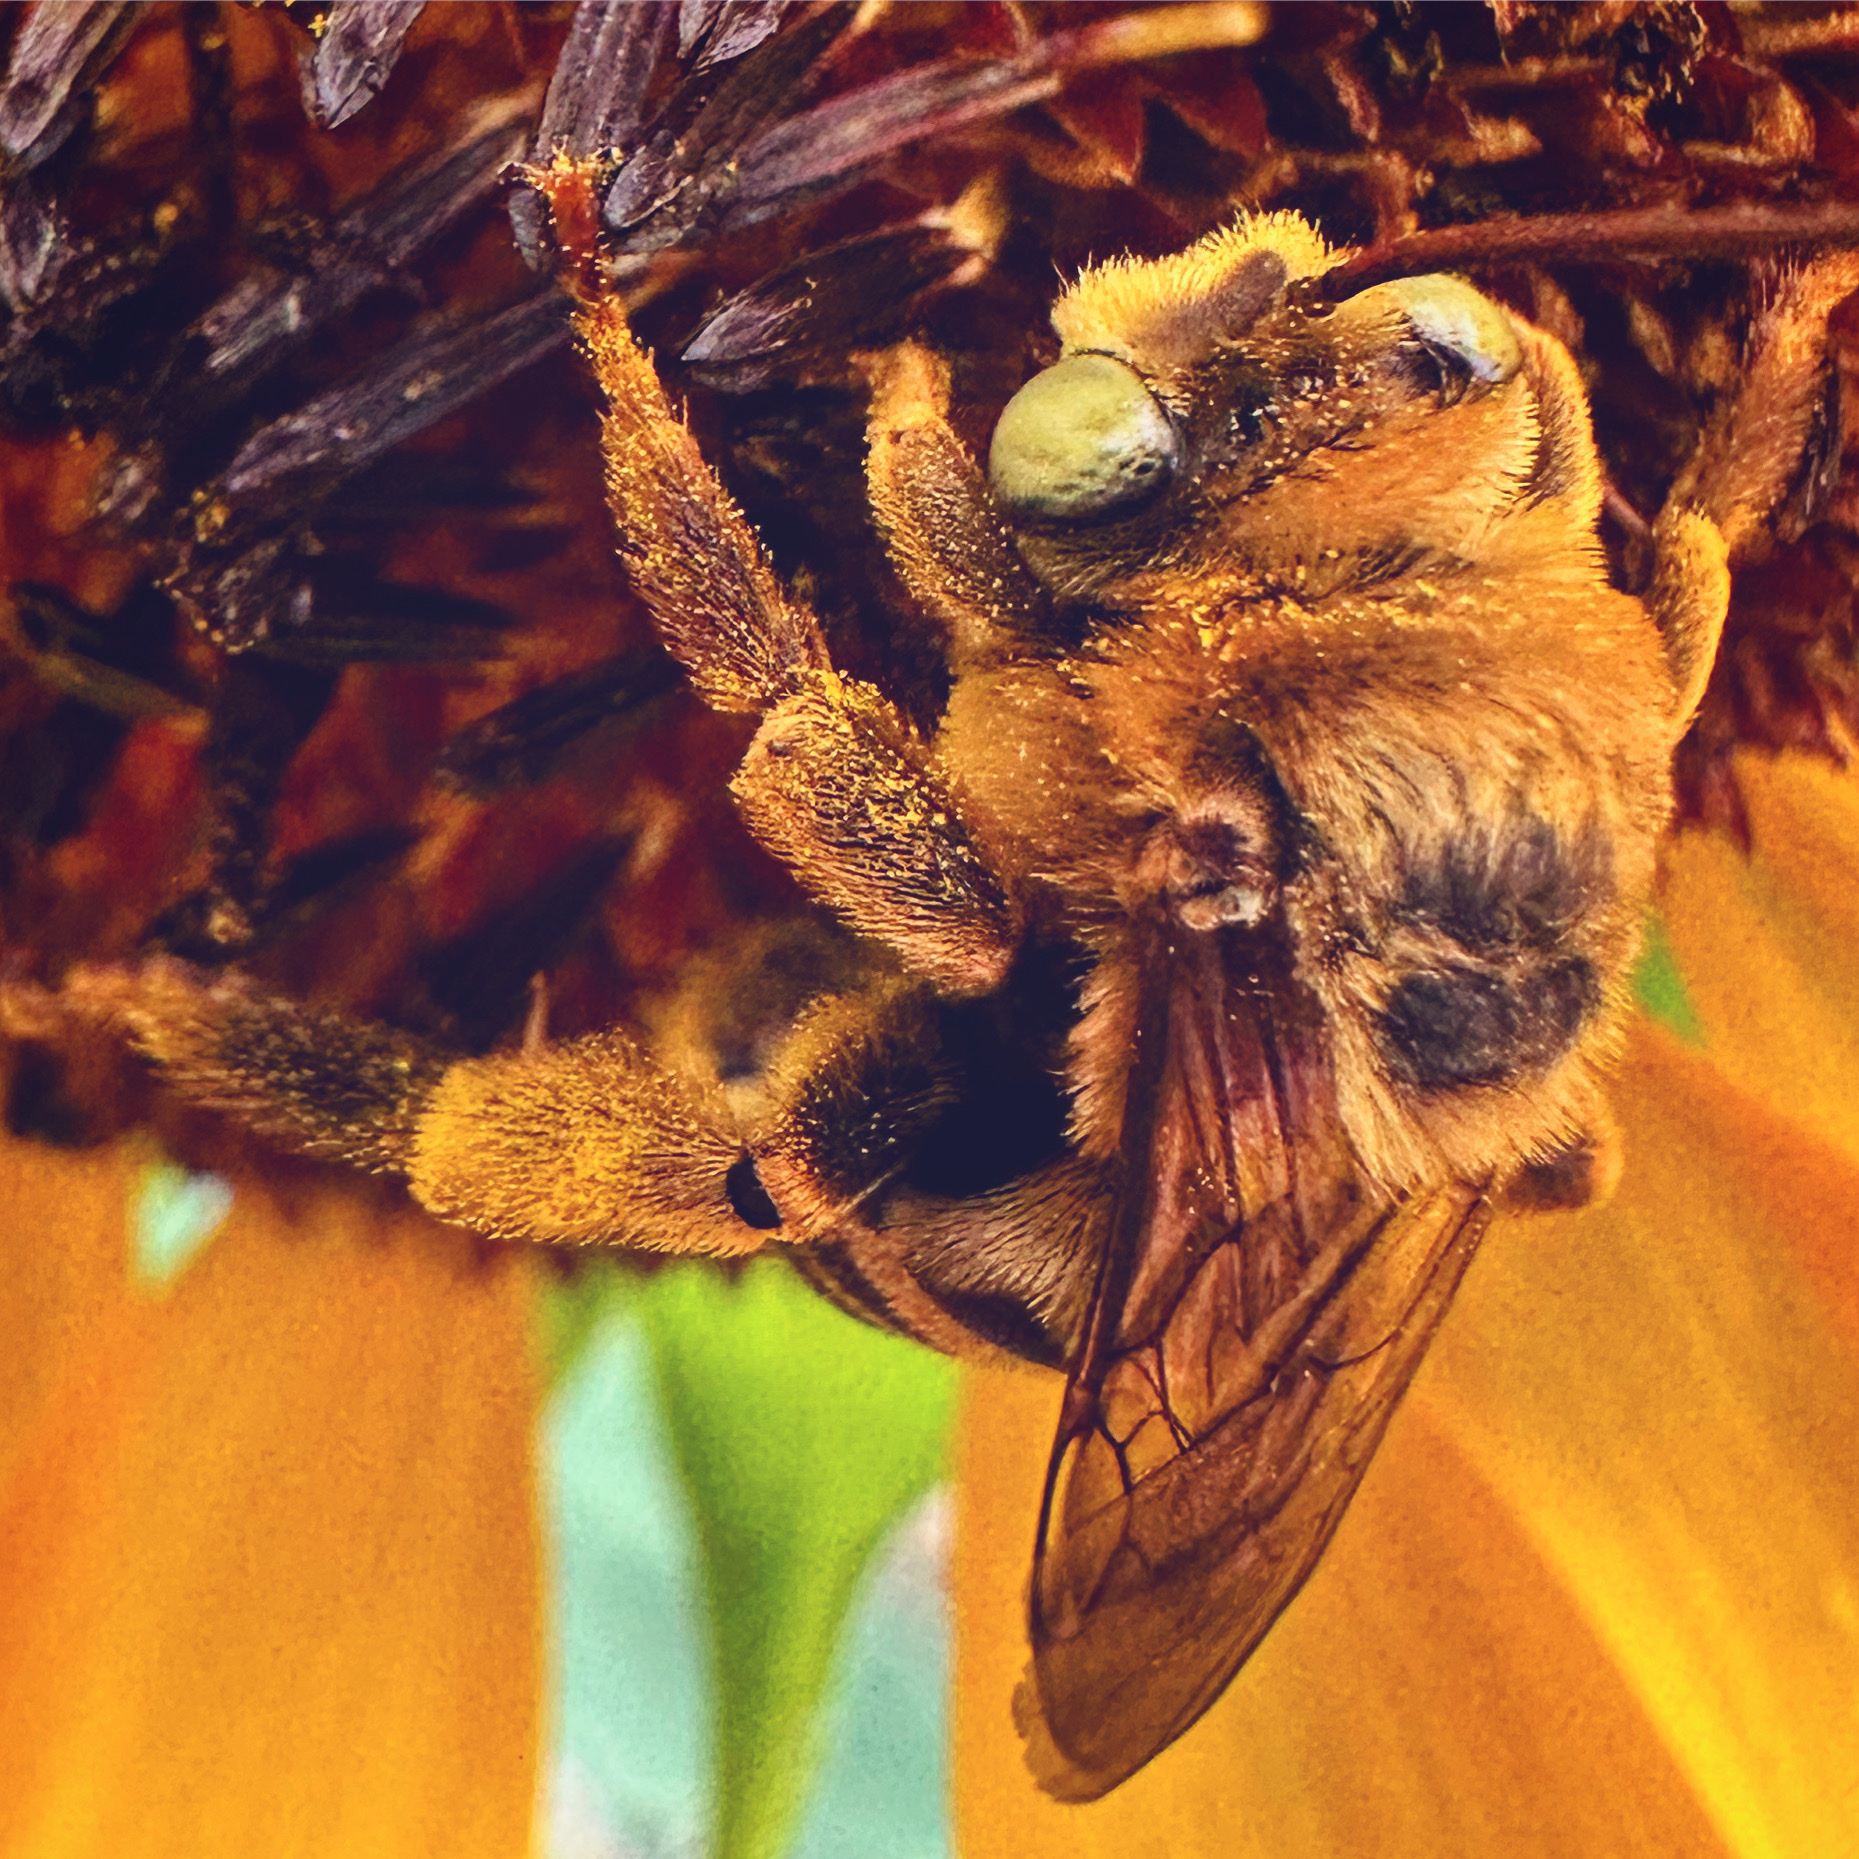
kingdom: Animalia
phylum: Arthropoda
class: Insecta
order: Hymenoptera
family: Apidae
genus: Svastra
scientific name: Svastra obliqua
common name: Oblique longhorn
